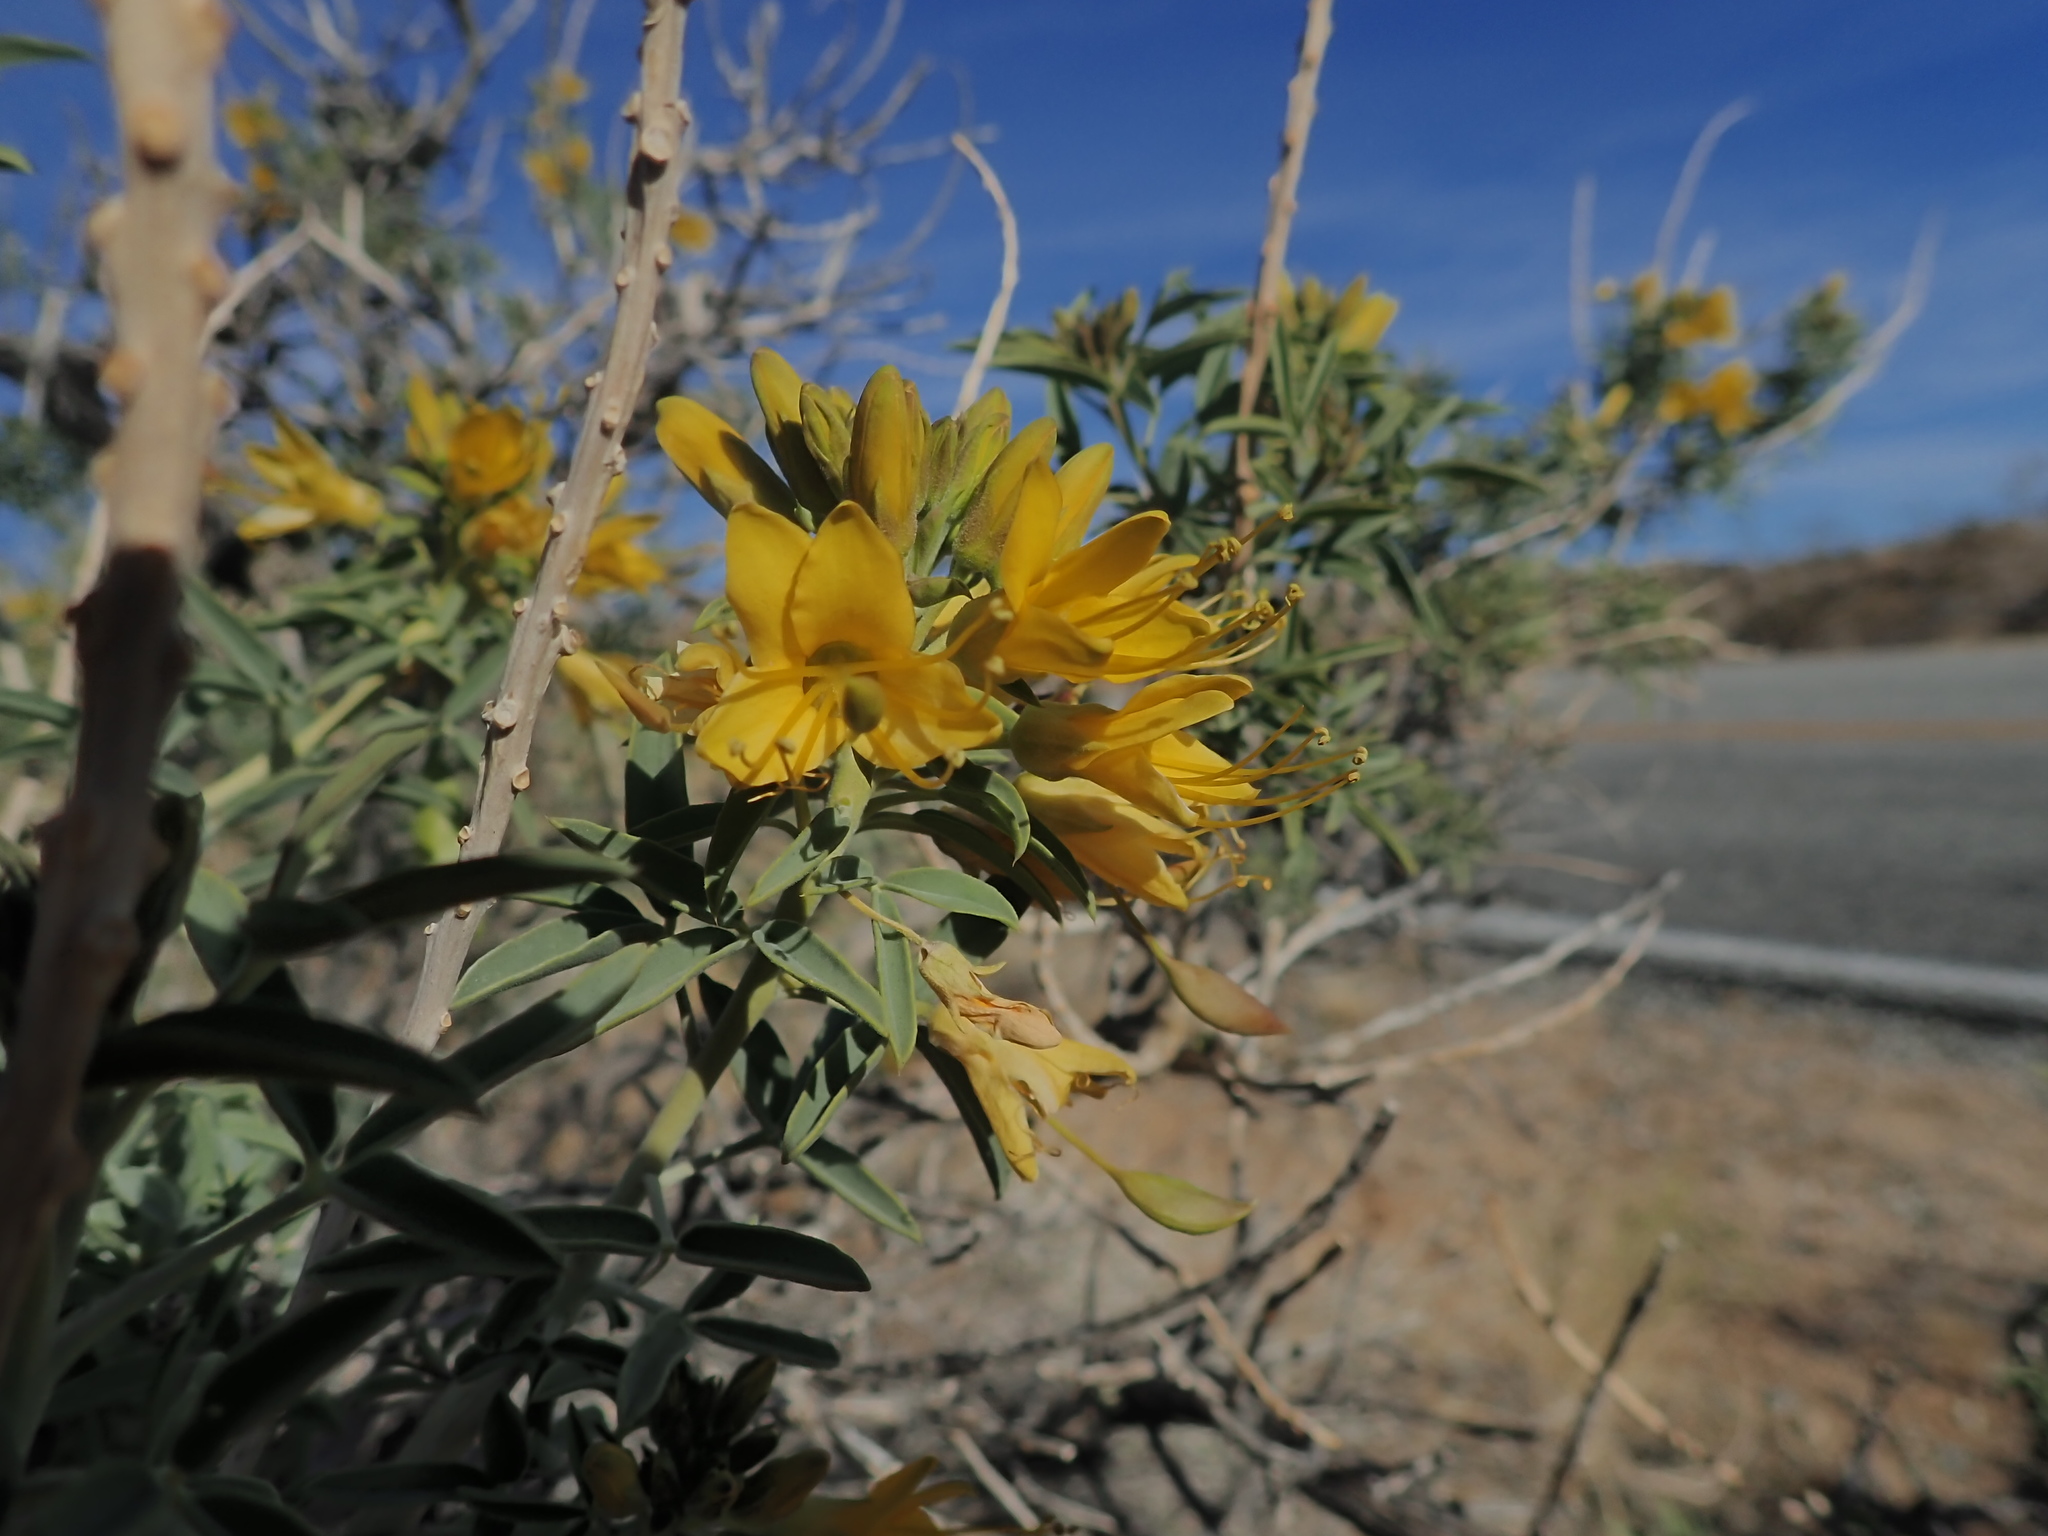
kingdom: Plantae
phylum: Tracheophyta
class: Magnoliopsida
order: Brassicales
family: Cleomaceae
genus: Cleomella
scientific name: Cleomella arborea
